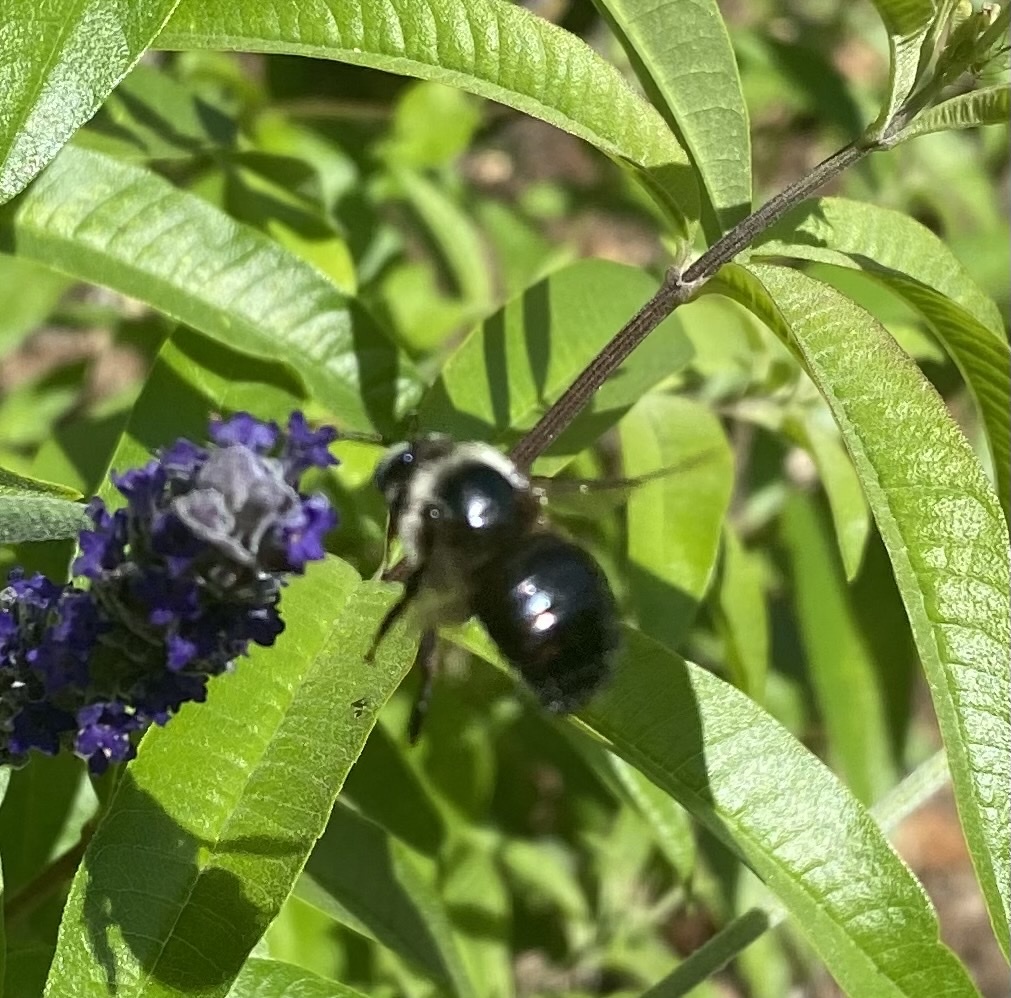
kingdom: Animalia
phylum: Arthropoda
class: Insecta
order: Hymenoptera
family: Apidae
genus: Xylocopa
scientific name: Xylocopa tabaniformis
